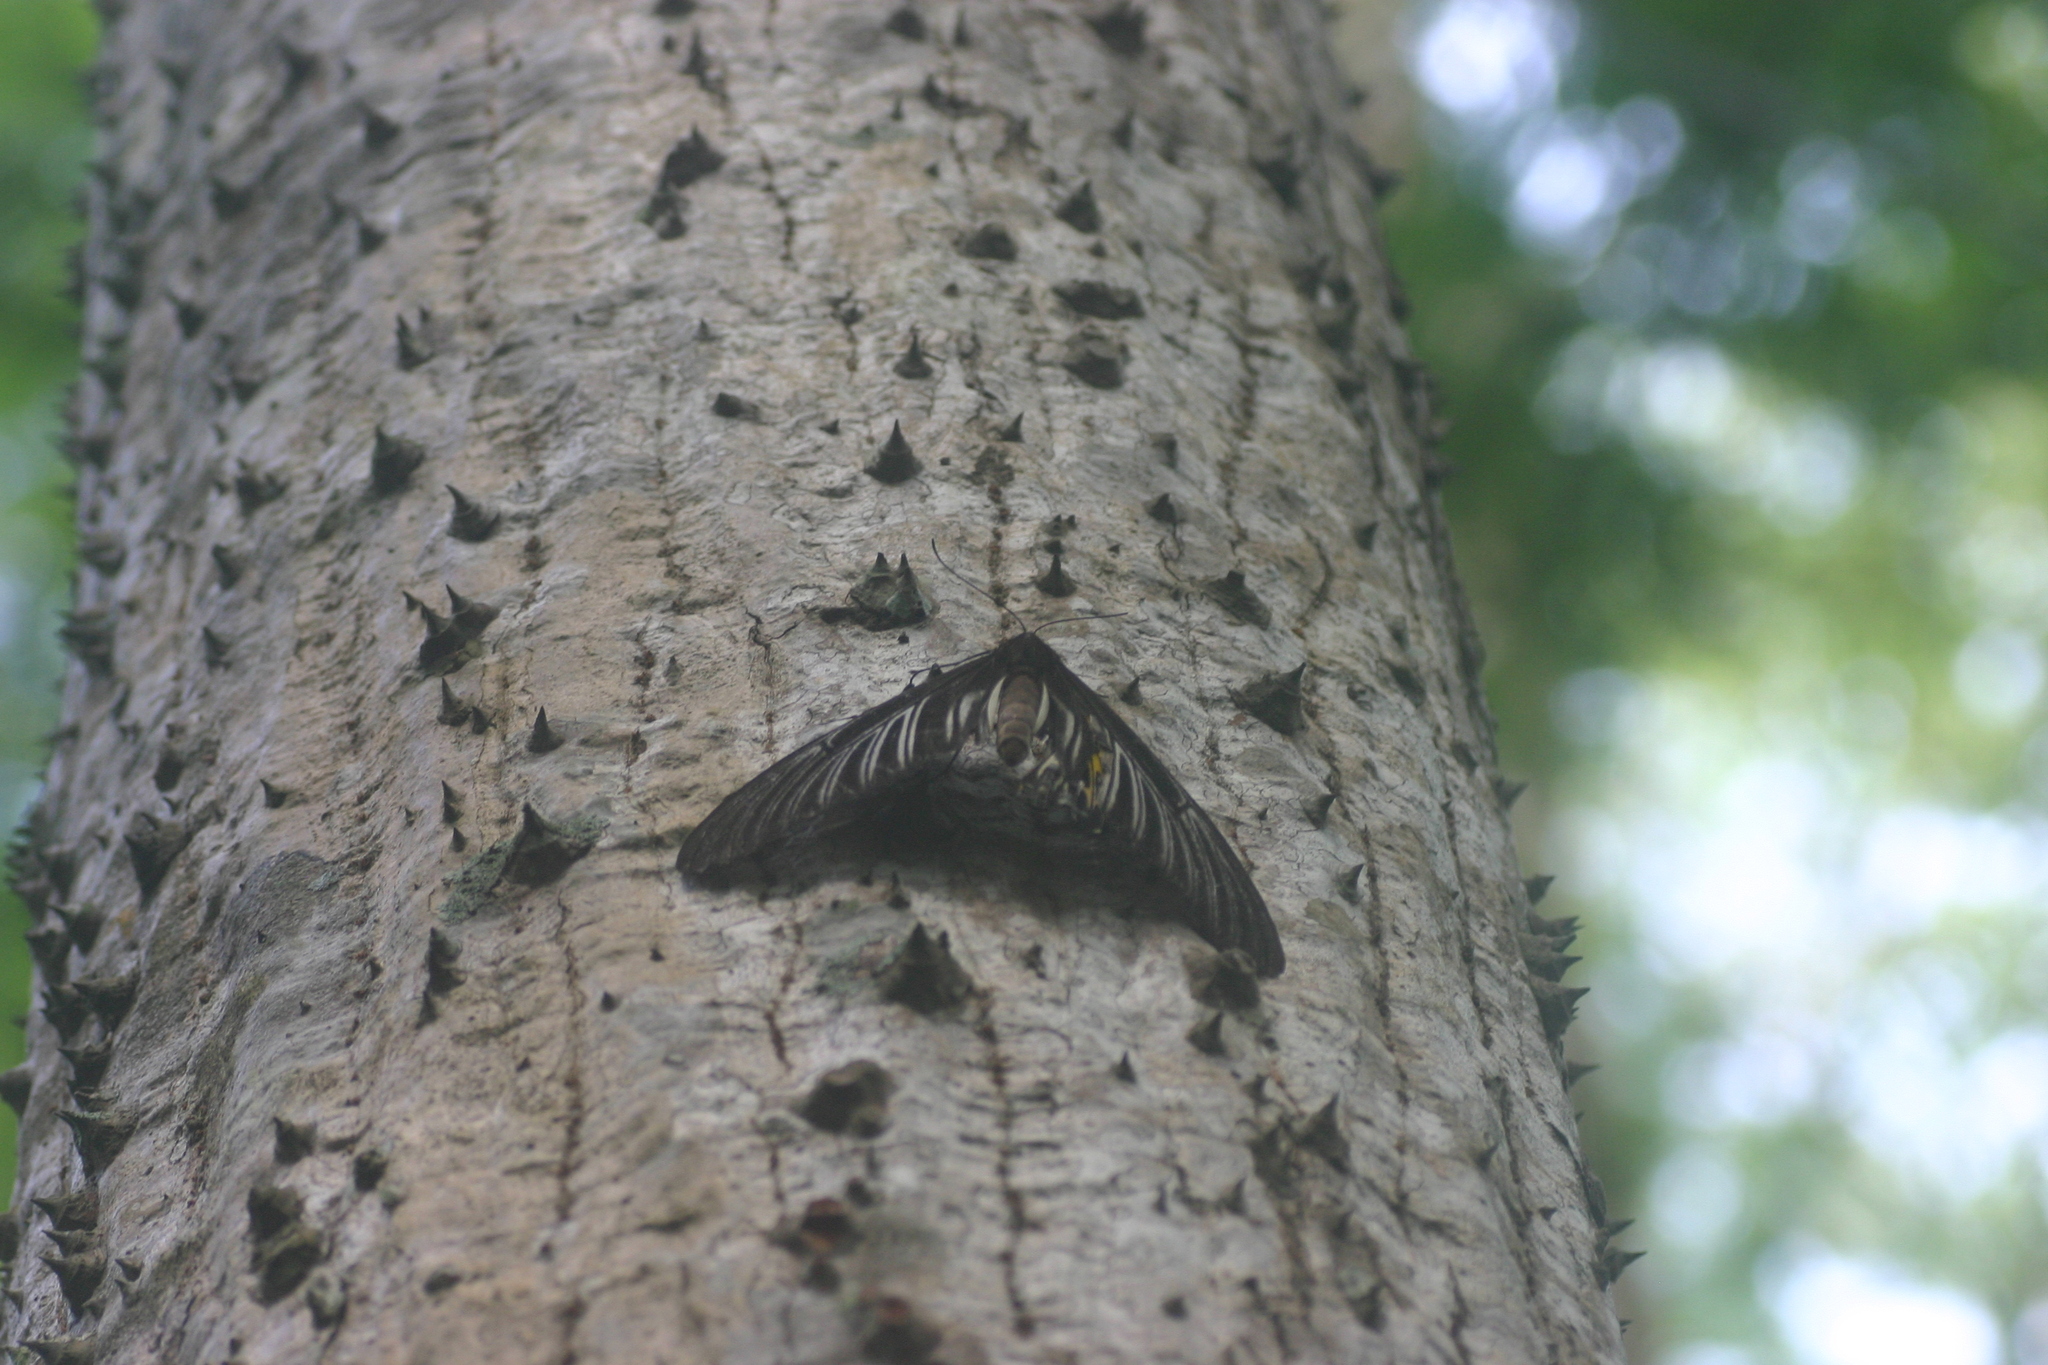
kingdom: Animalia
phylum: Arthropoda
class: Insecta
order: Lepidoptera
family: Papilionidae
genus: Troides
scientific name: Troides minos
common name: Malabar birdwing
